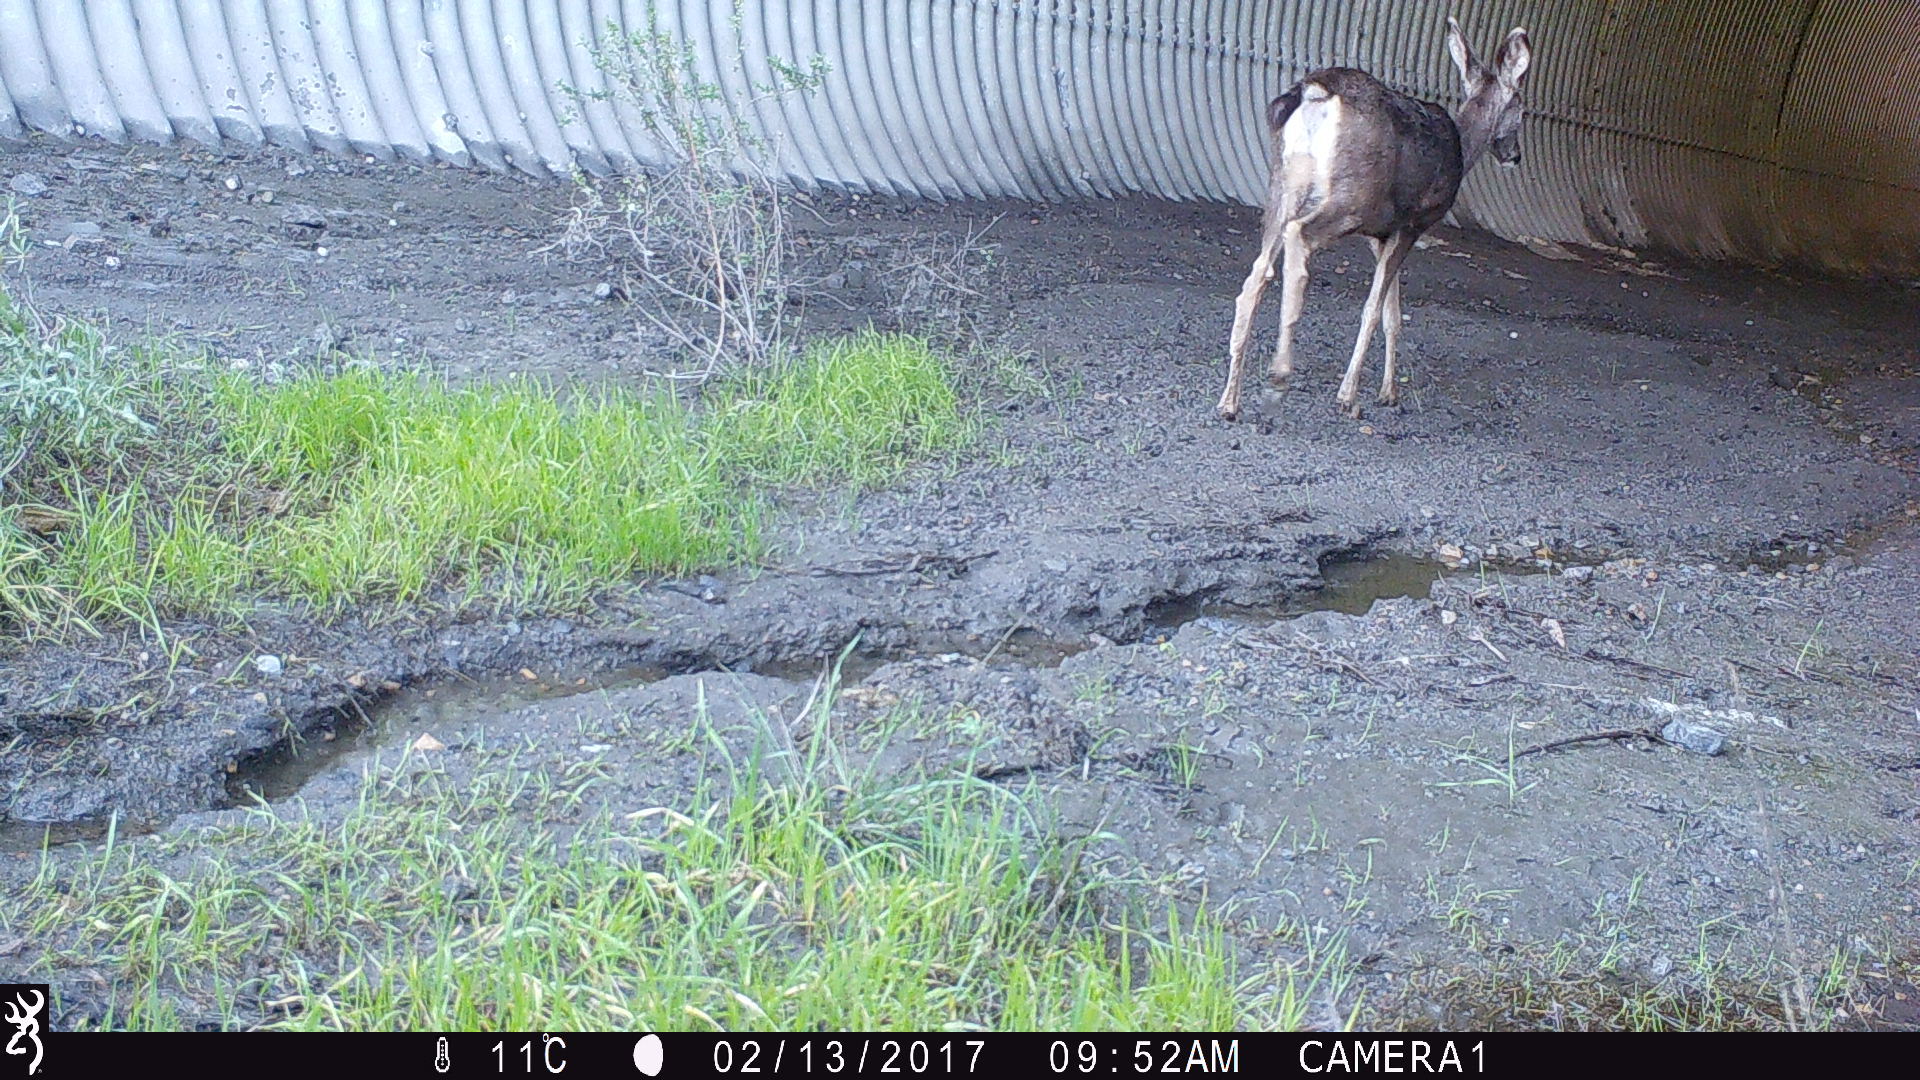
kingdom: Animalia
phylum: Chordata
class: Mammalia
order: Artiodactyla
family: Cervidae
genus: Odocoileus
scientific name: Odocoileus hemionus
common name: Mule deer
